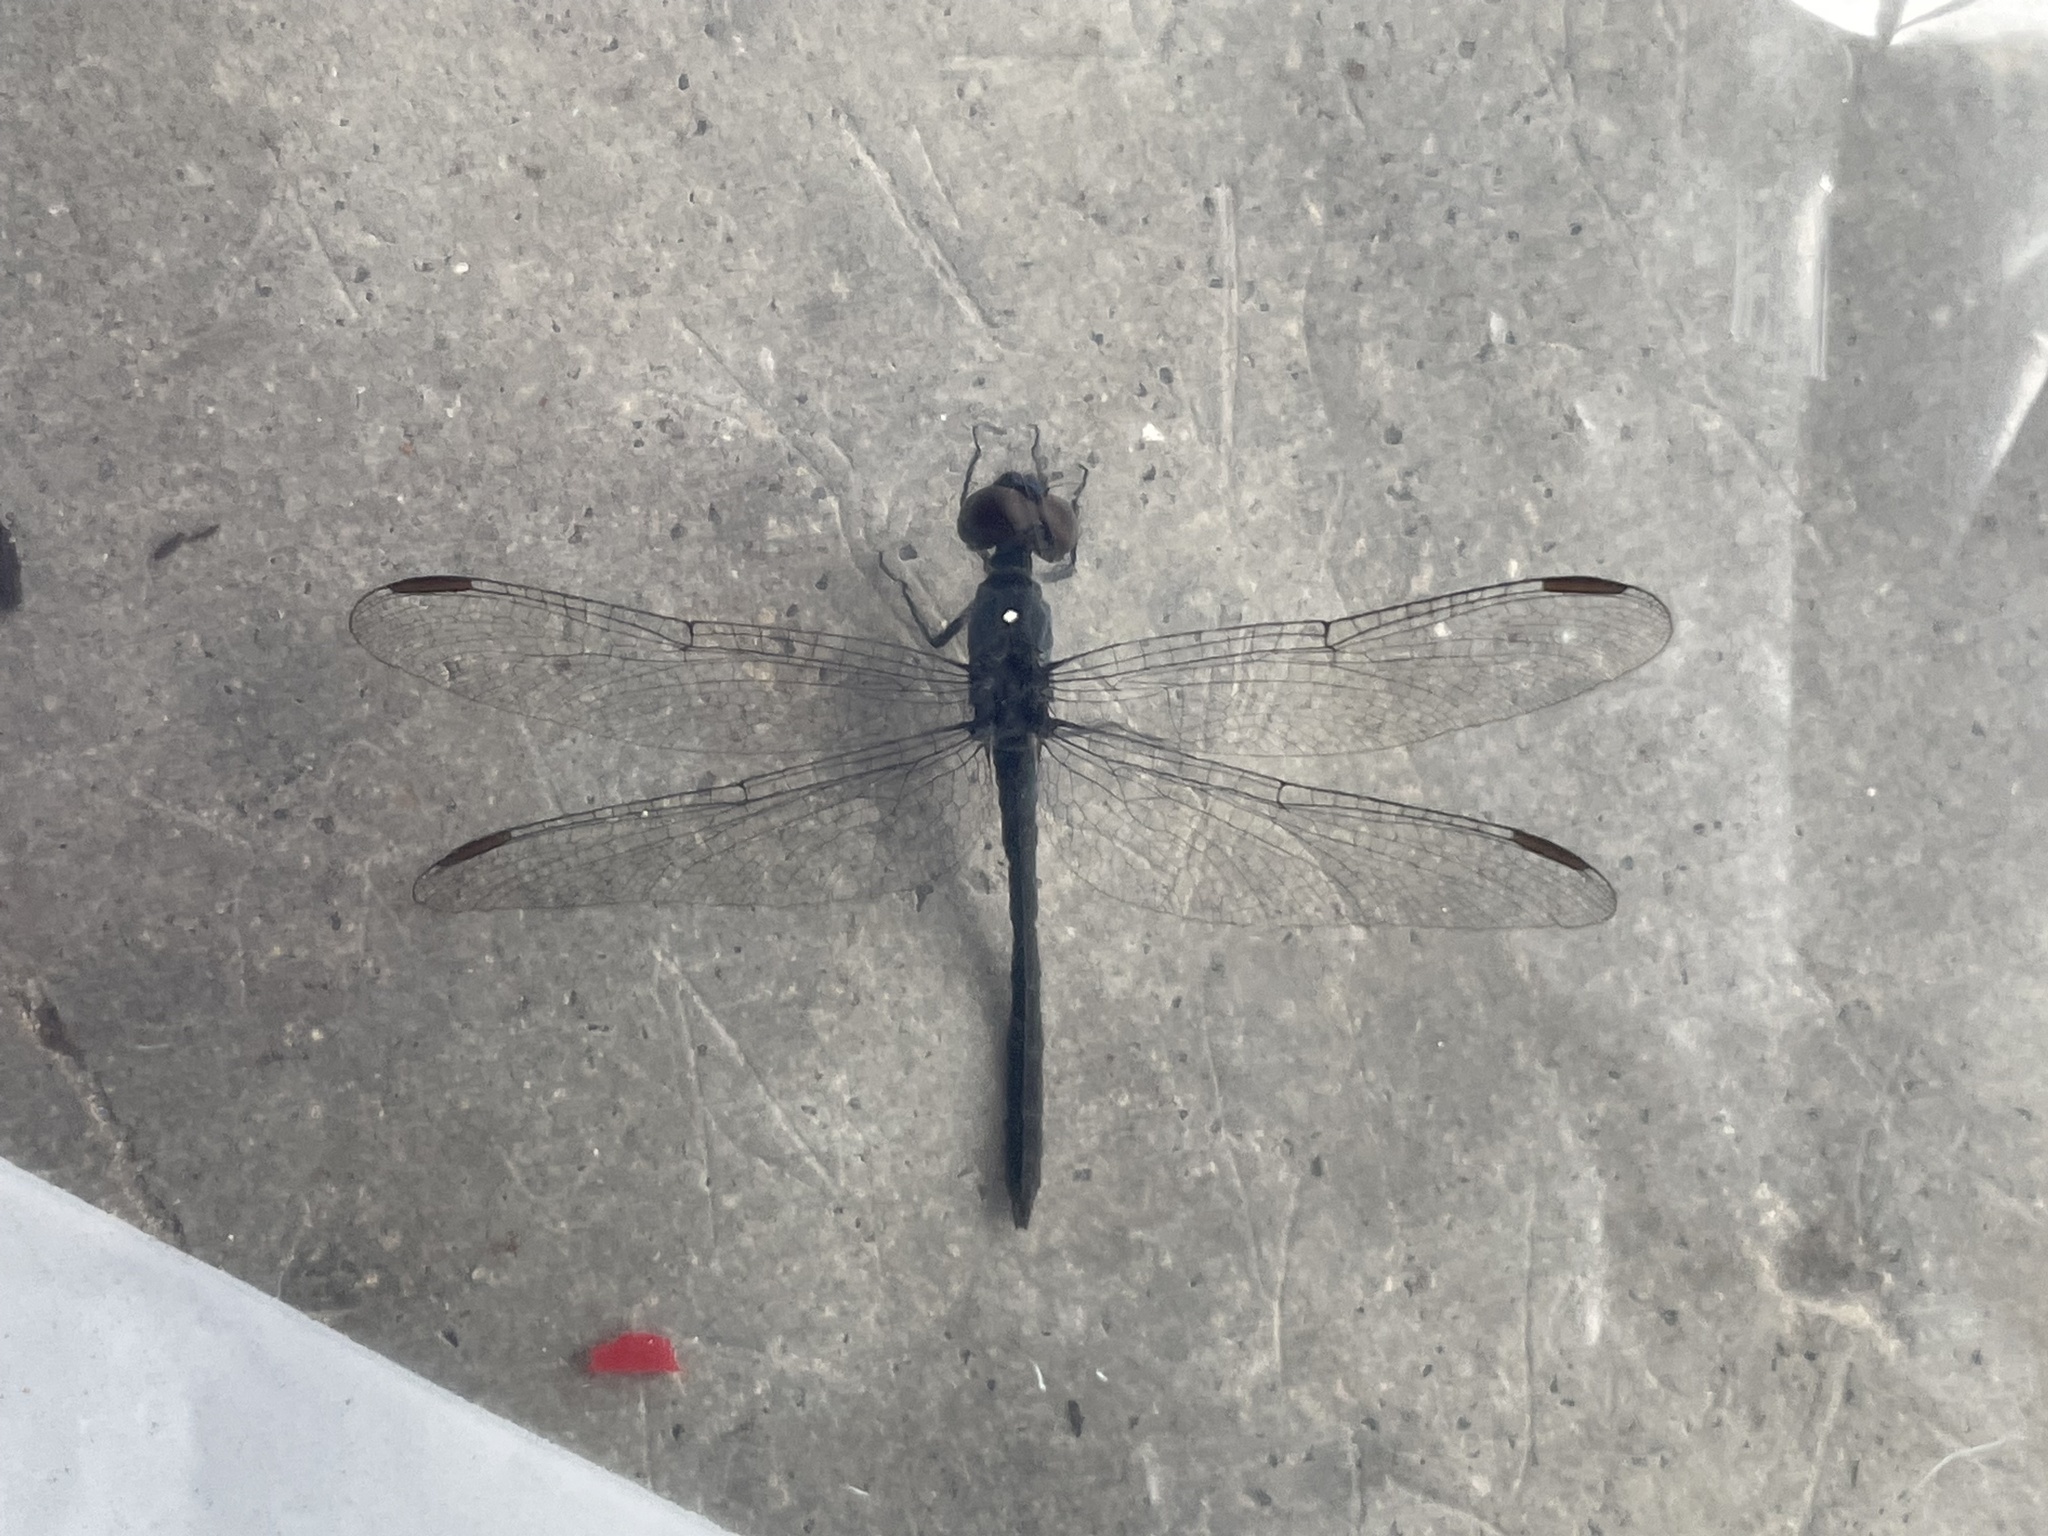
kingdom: Animalia
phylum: Arthropoda
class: Insecta
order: Odonata
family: Libellulidae
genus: Erythrodiplax
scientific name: Erythrodiplax berenice
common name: Seaside dragonlet
